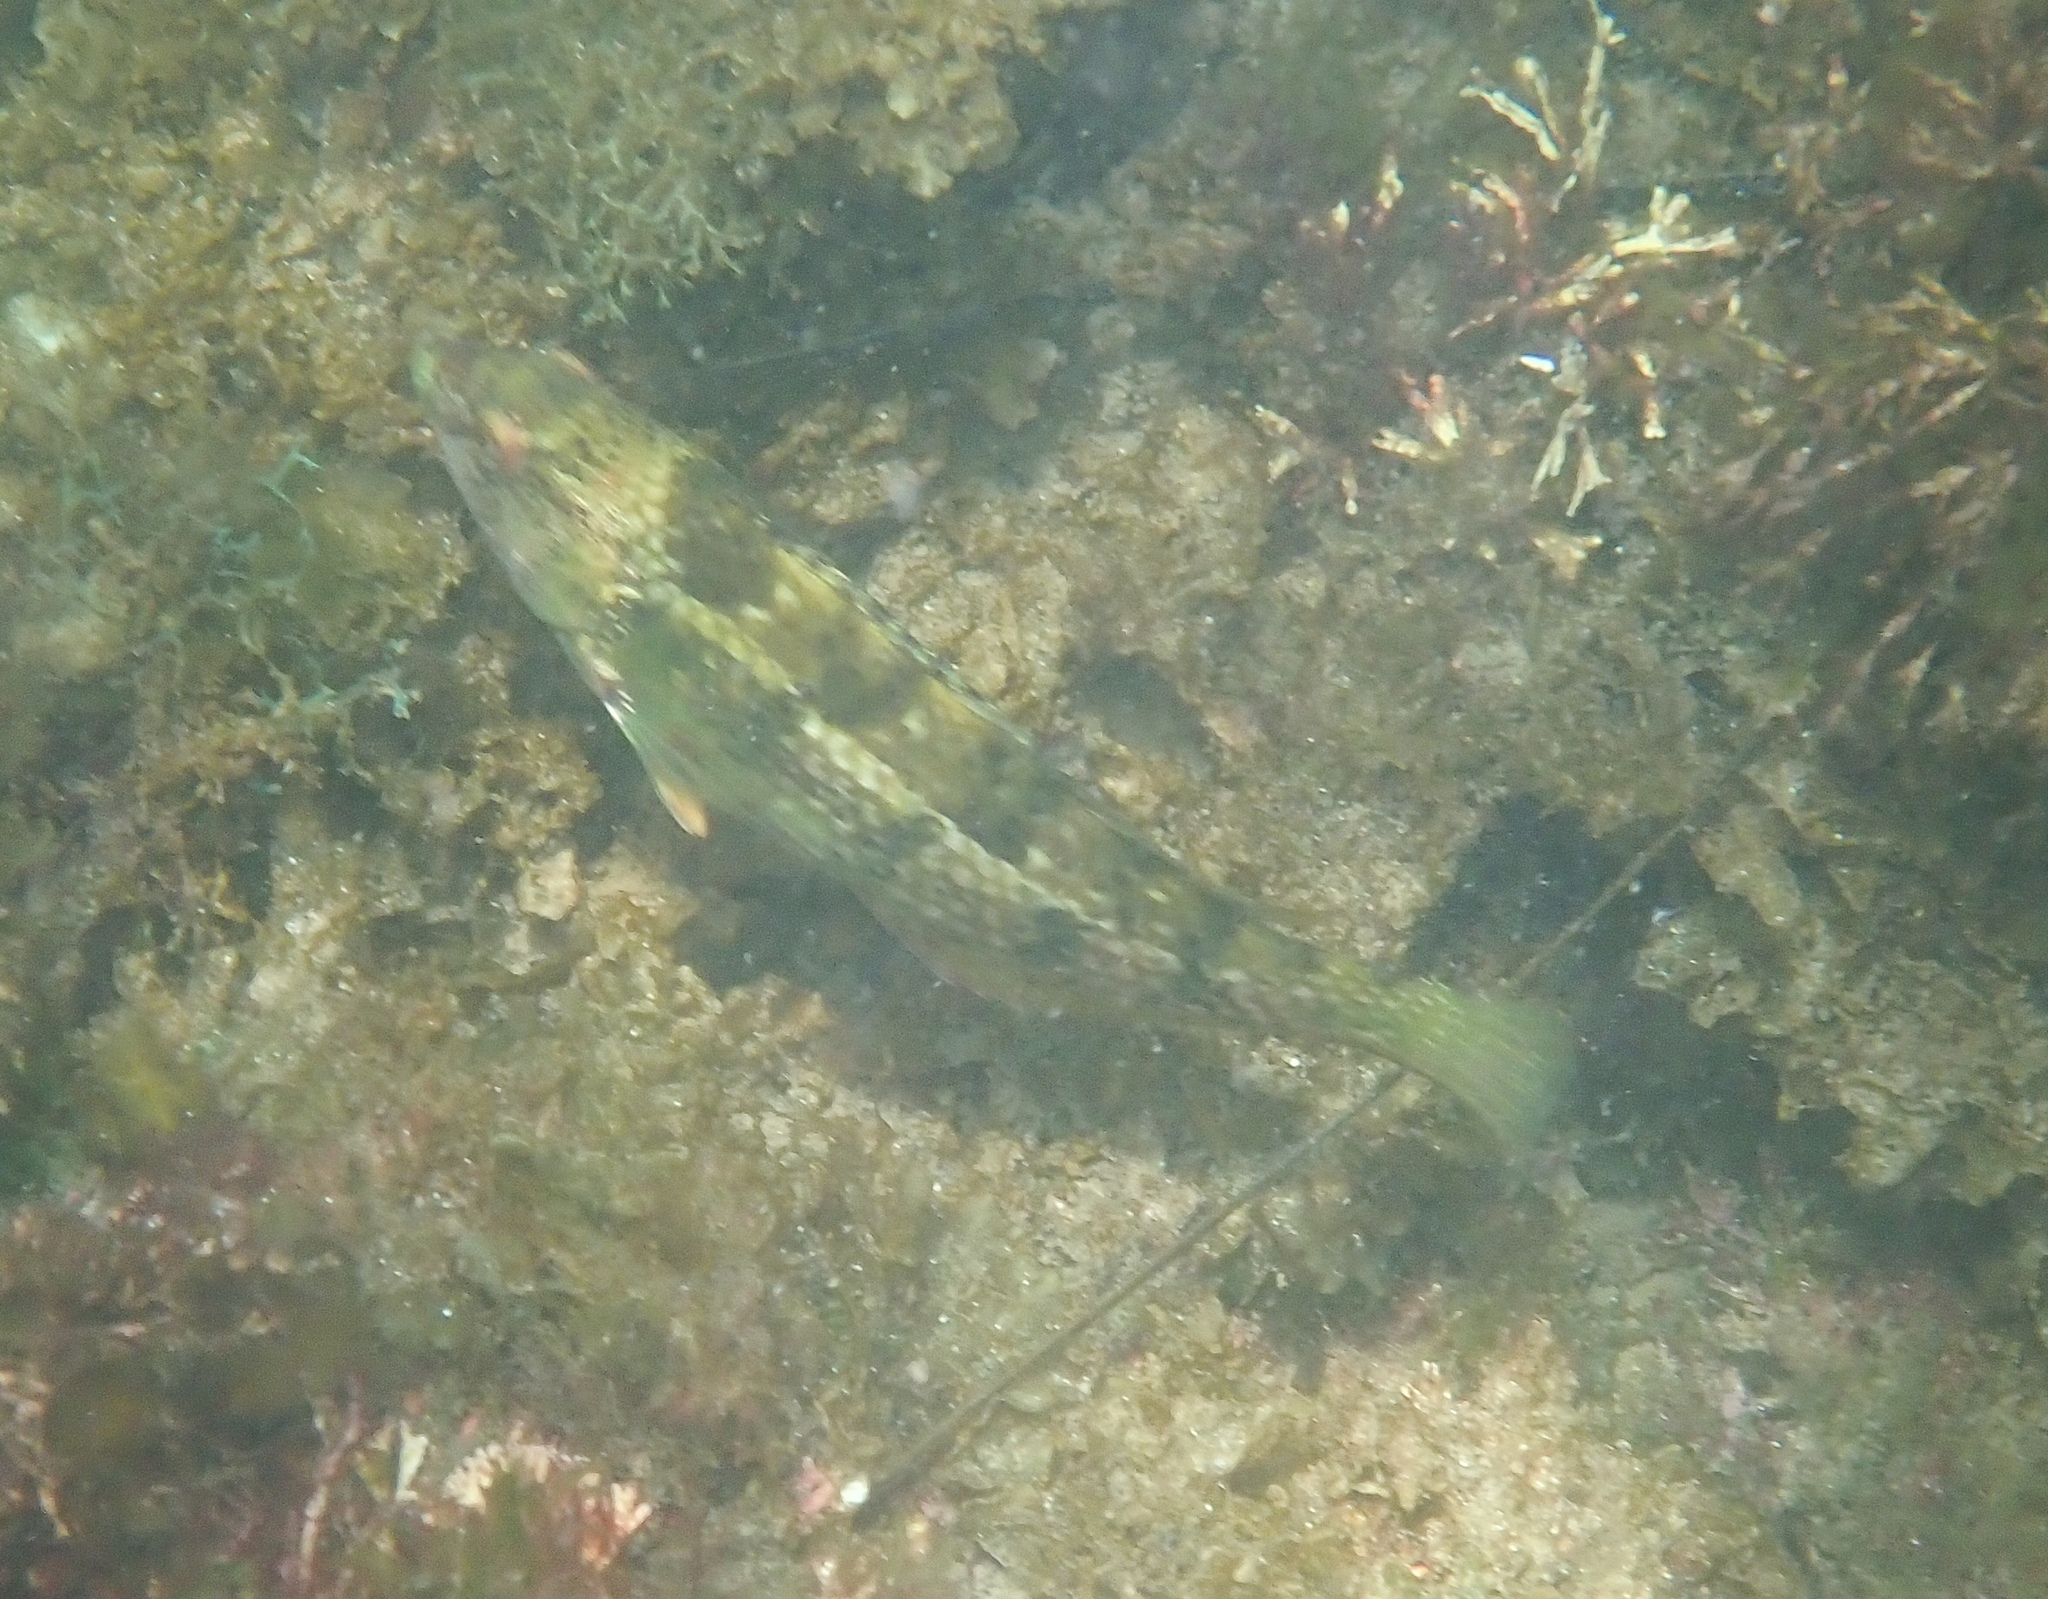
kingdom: Animalia
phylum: Chordata
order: Perciformes
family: Labridae
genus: Notolabrus
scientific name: Notolabrus parilus
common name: Brown spotted wrasse
